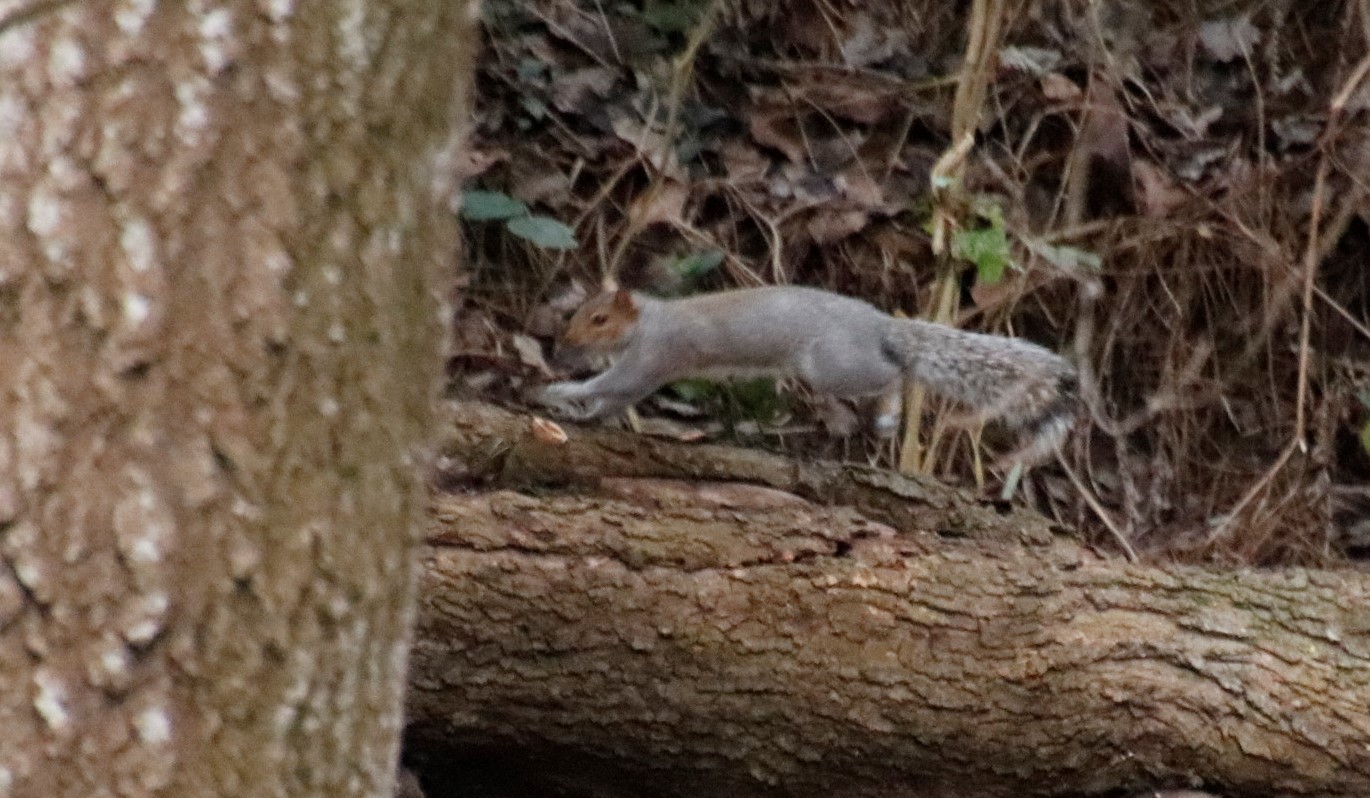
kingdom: Animalia
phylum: Chordata
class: Mammalia
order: Rodentia
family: Sciuridae
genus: Sciurus
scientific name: Sciurus carolinensis
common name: Eastern gray squirrel
